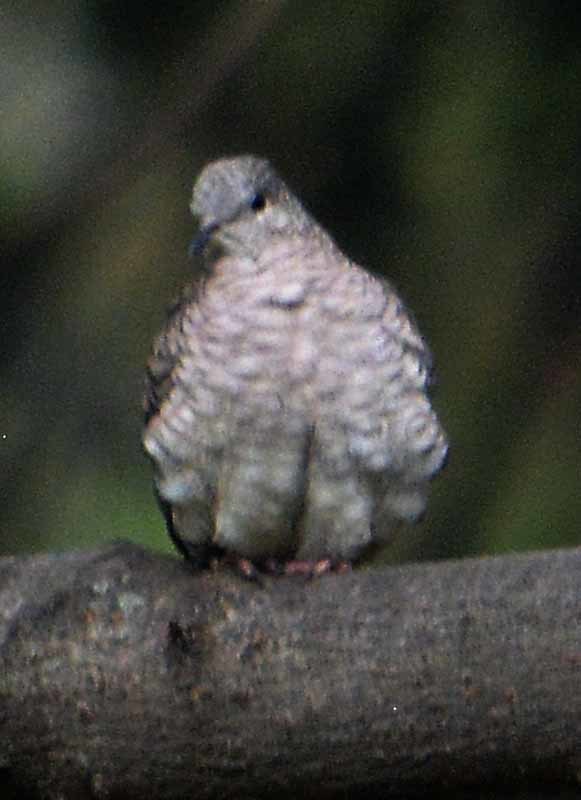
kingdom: Animalia
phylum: Chordata
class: Aves
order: Columbiformes
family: Columbidae
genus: Columbina
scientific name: Columbina inca
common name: Inca dove
